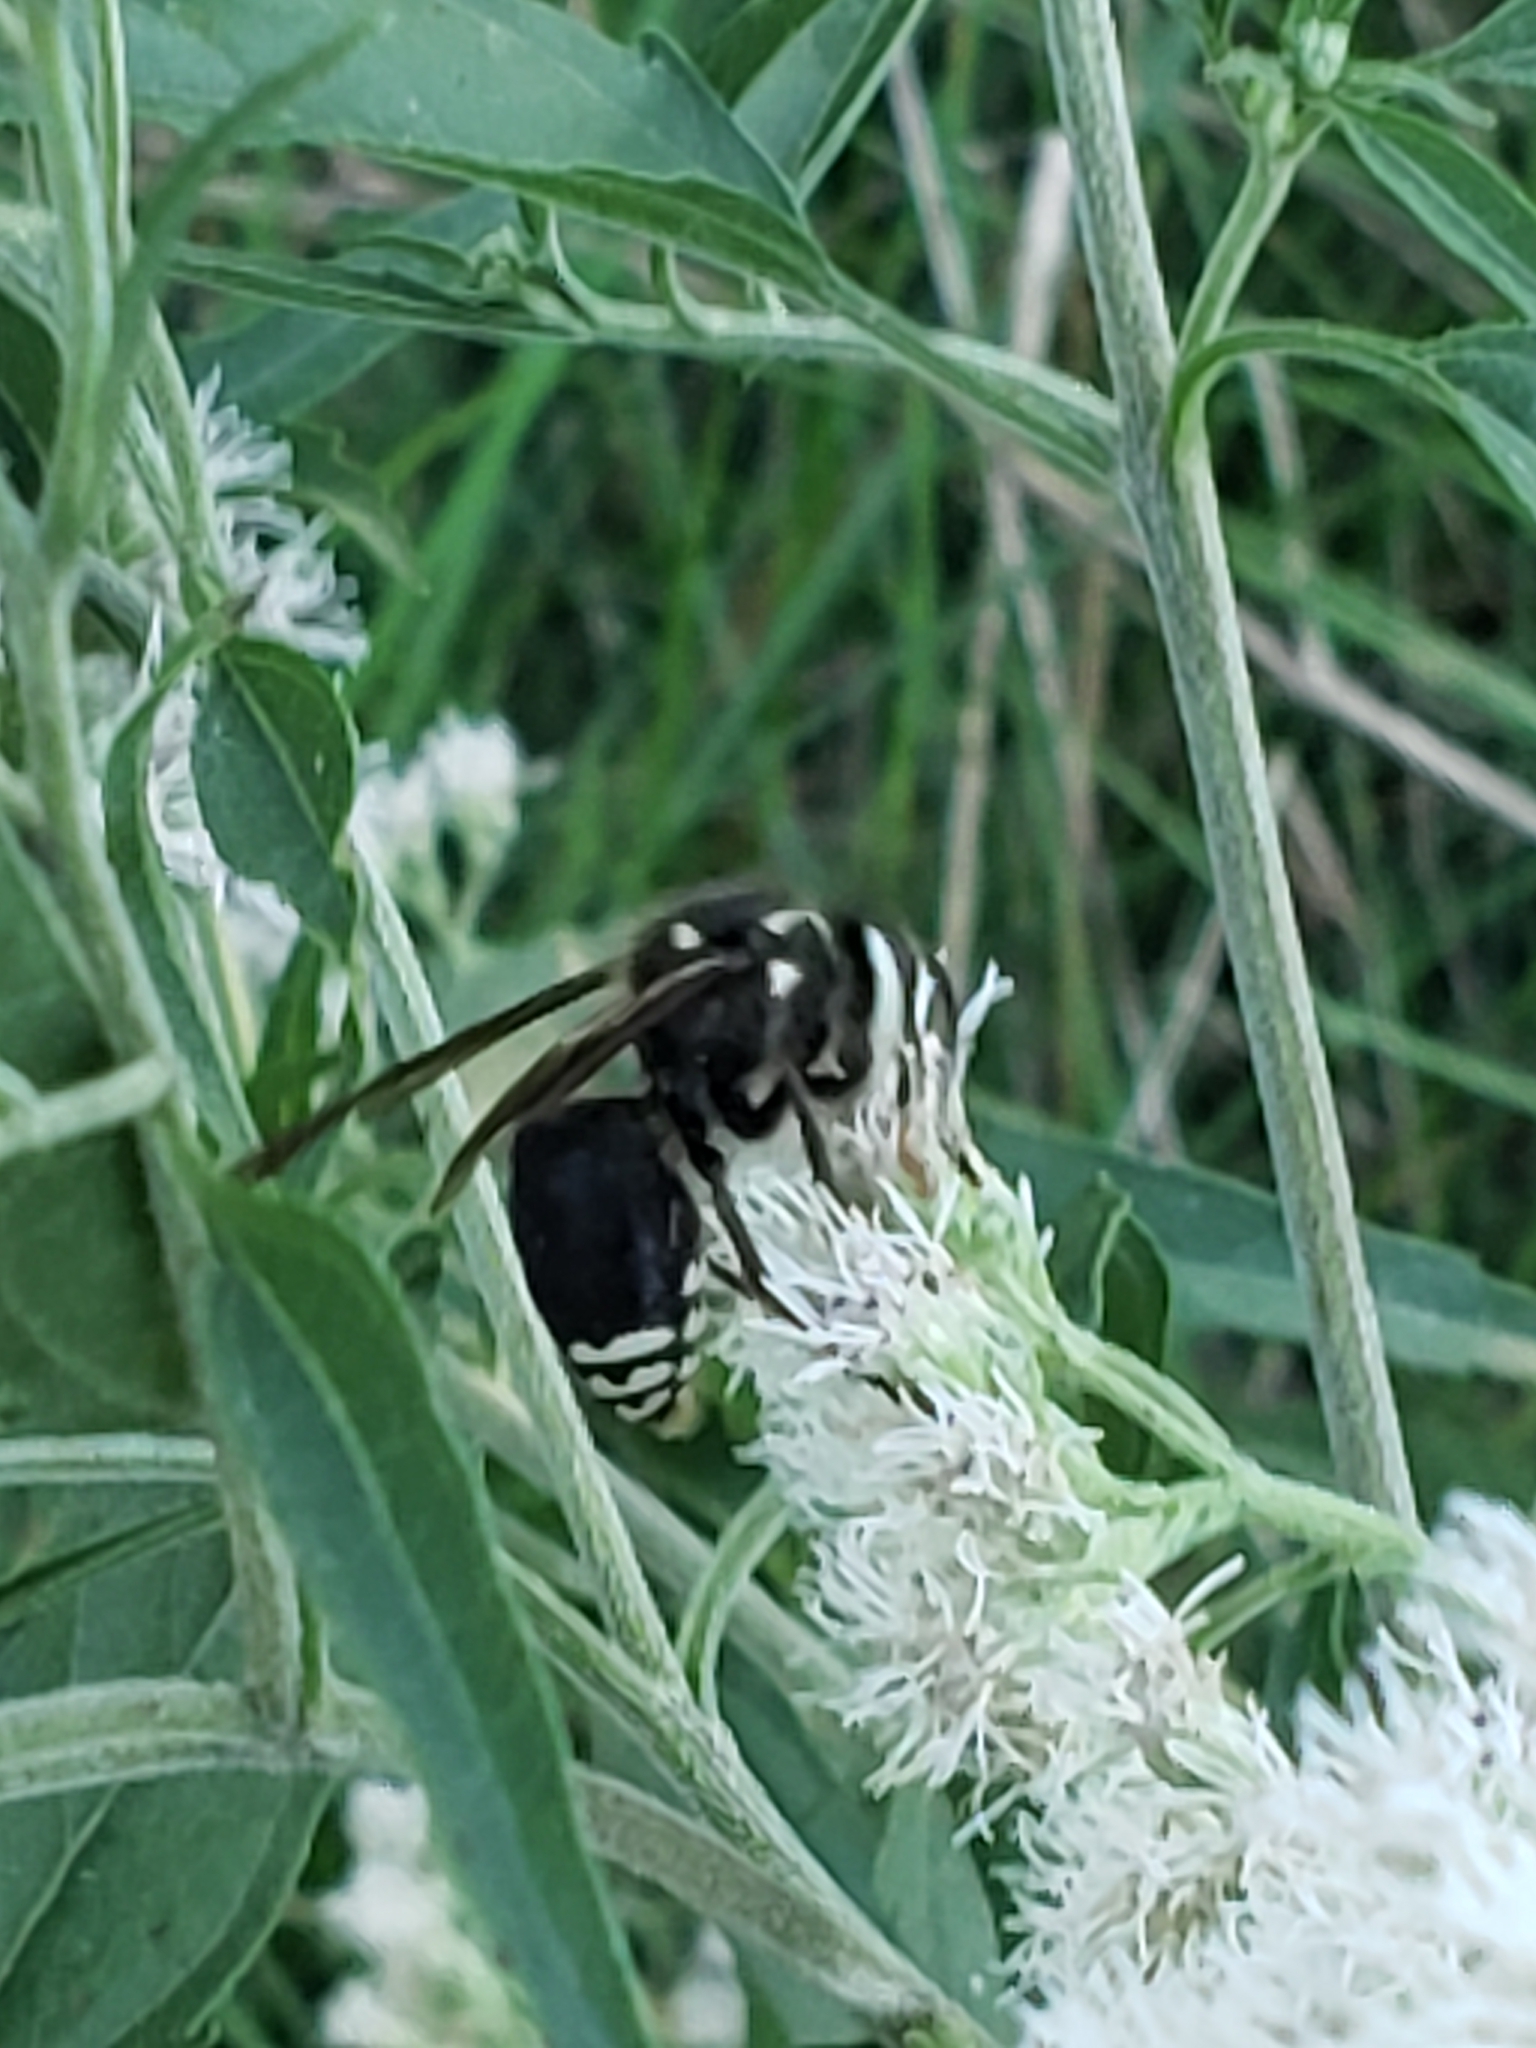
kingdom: Animalia
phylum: Arthropoda
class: Insecta
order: Hymenoptera
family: Vespidae
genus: Dolichovespula
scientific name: Dolichovespula maculata
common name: Bald-faced hornet
